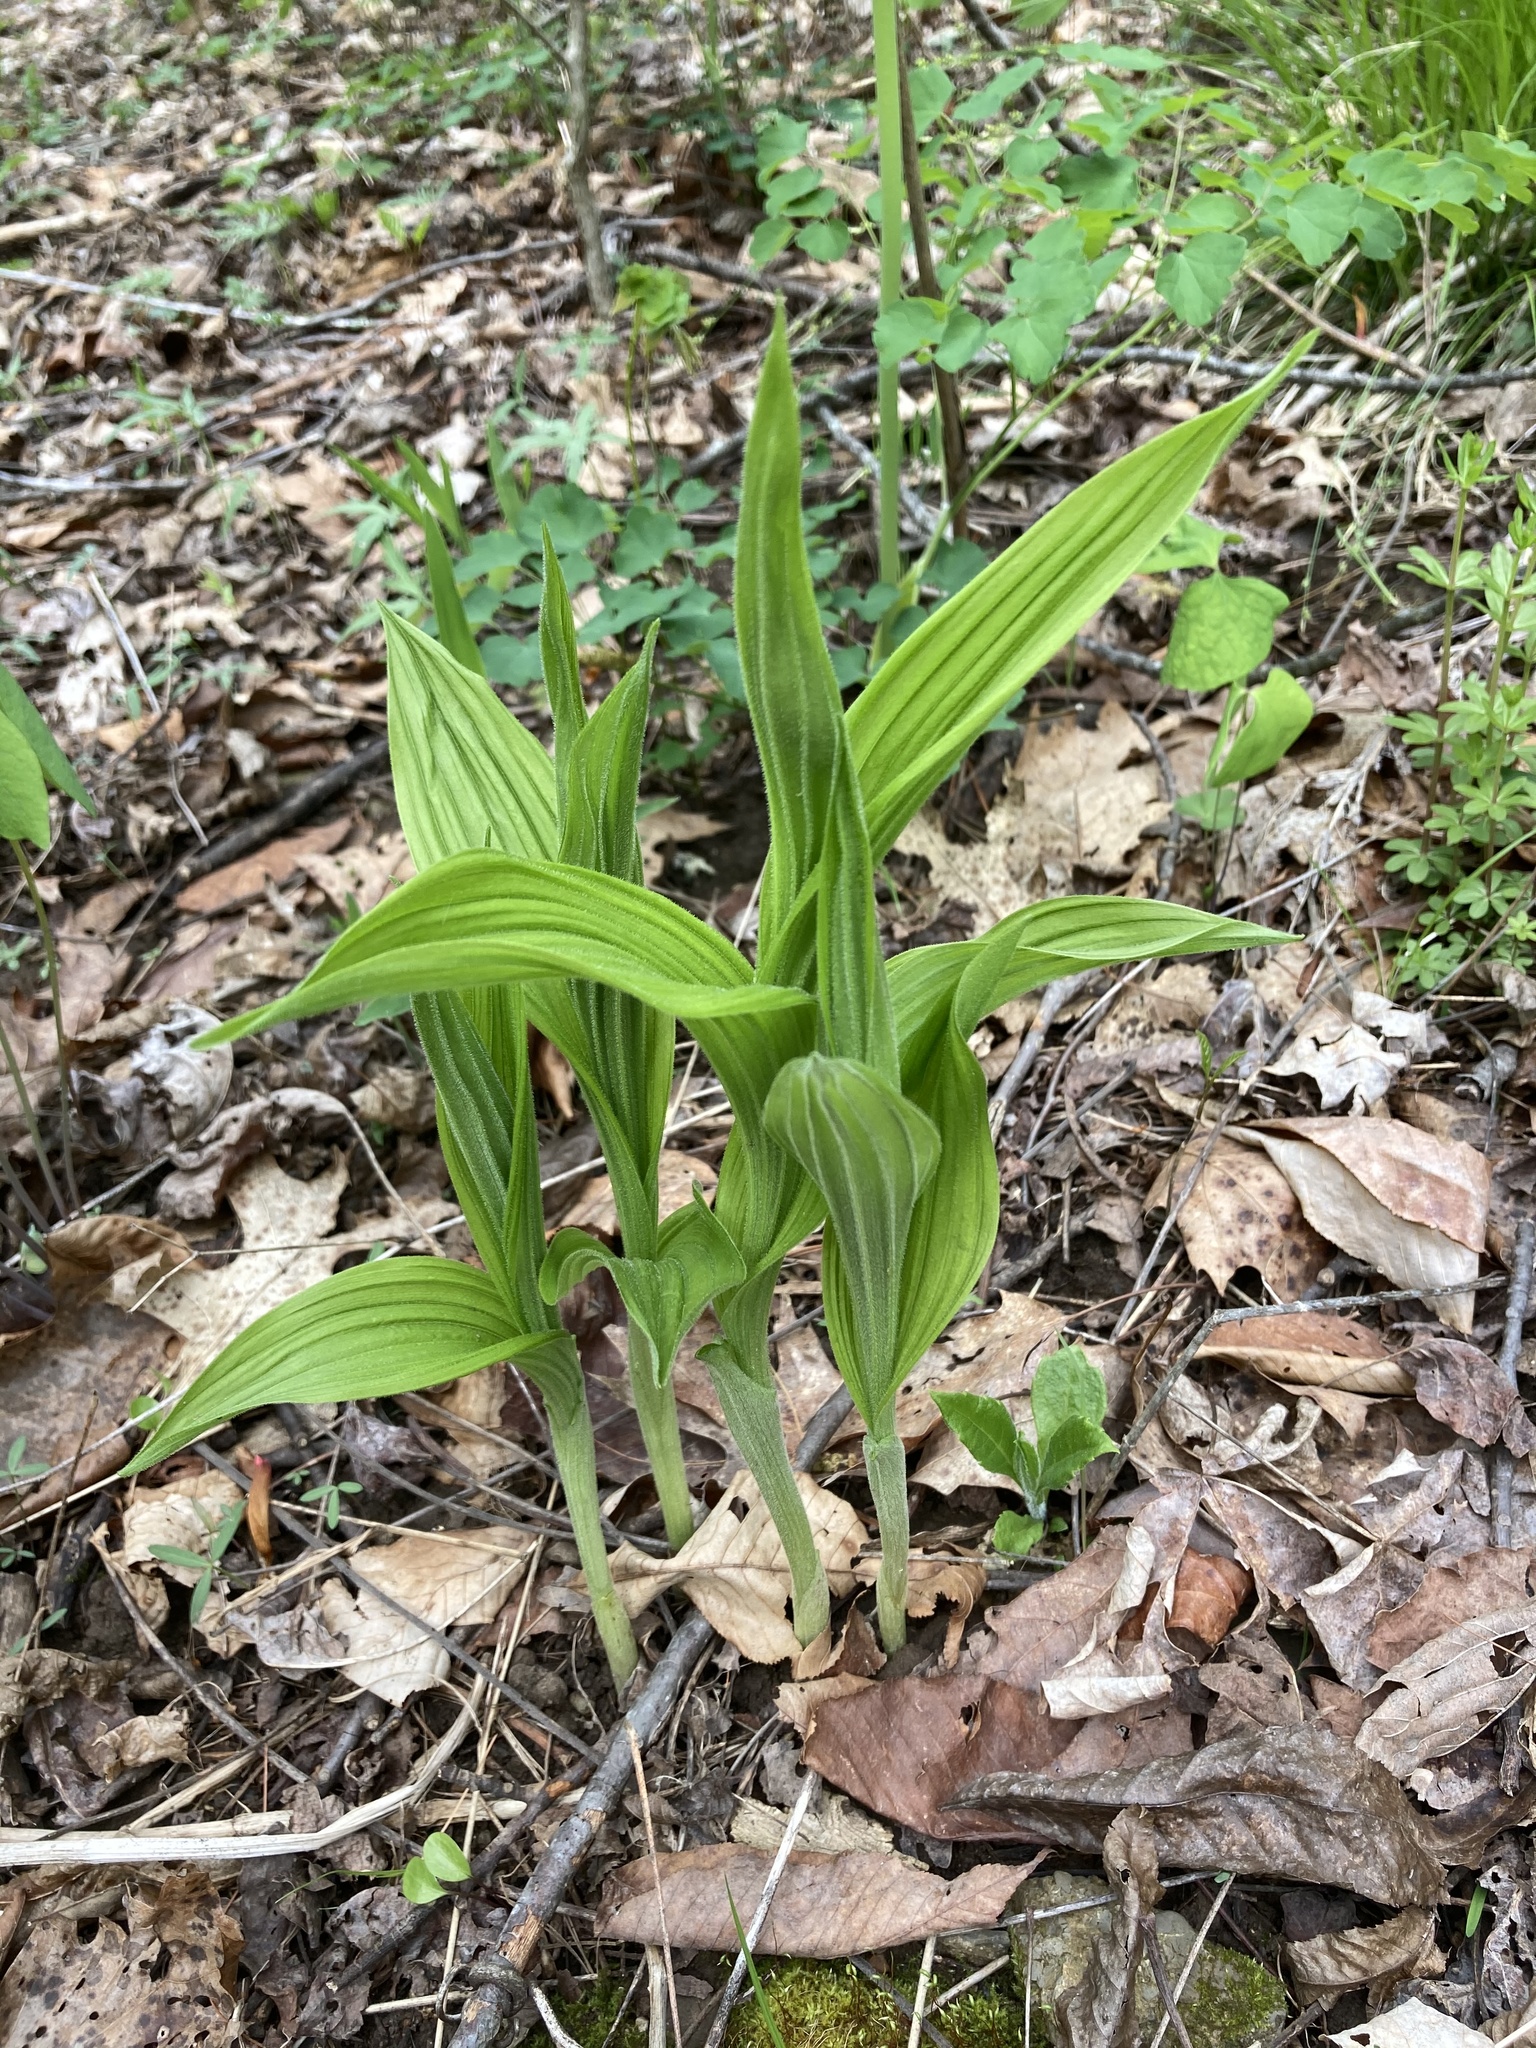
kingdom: Plantae
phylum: Tracheophyta
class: Liliopsida
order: Asparagales
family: Orchidaceae
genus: Cypripedium
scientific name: Cypripedium parviflorum
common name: American yellow lady's-slipper
